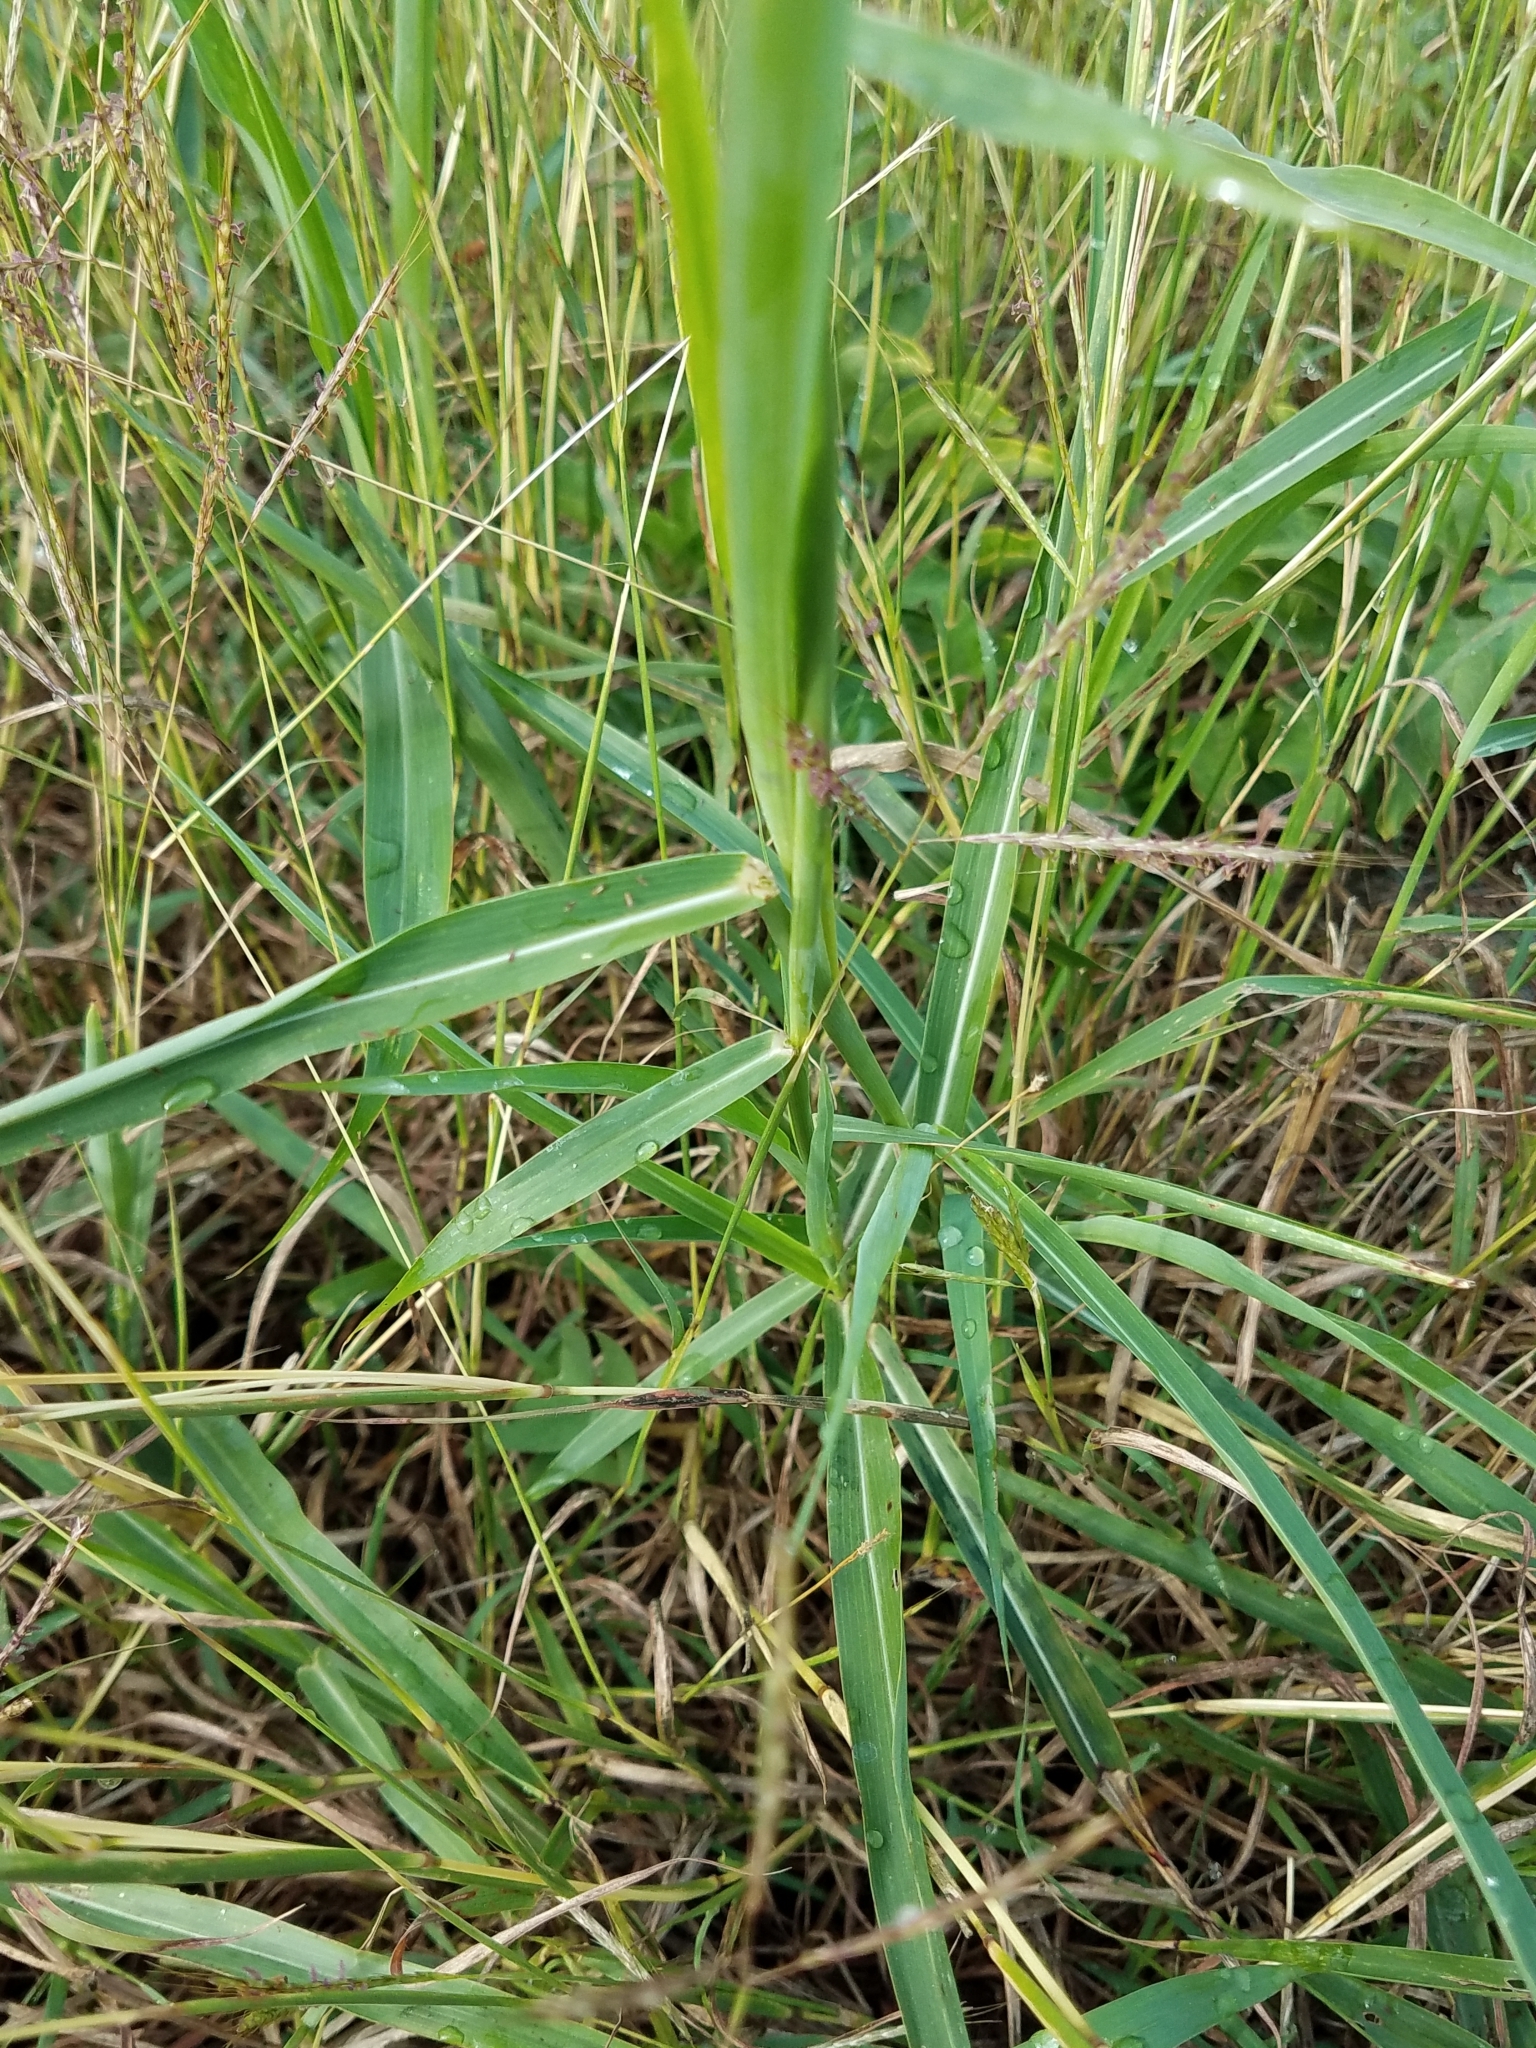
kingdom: Plantae
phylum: Tracheophyta
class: Liliopsida
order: Poales
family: Poaceae
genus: Sorghum
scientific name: Sorghum halepense
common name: Johnson-grass
